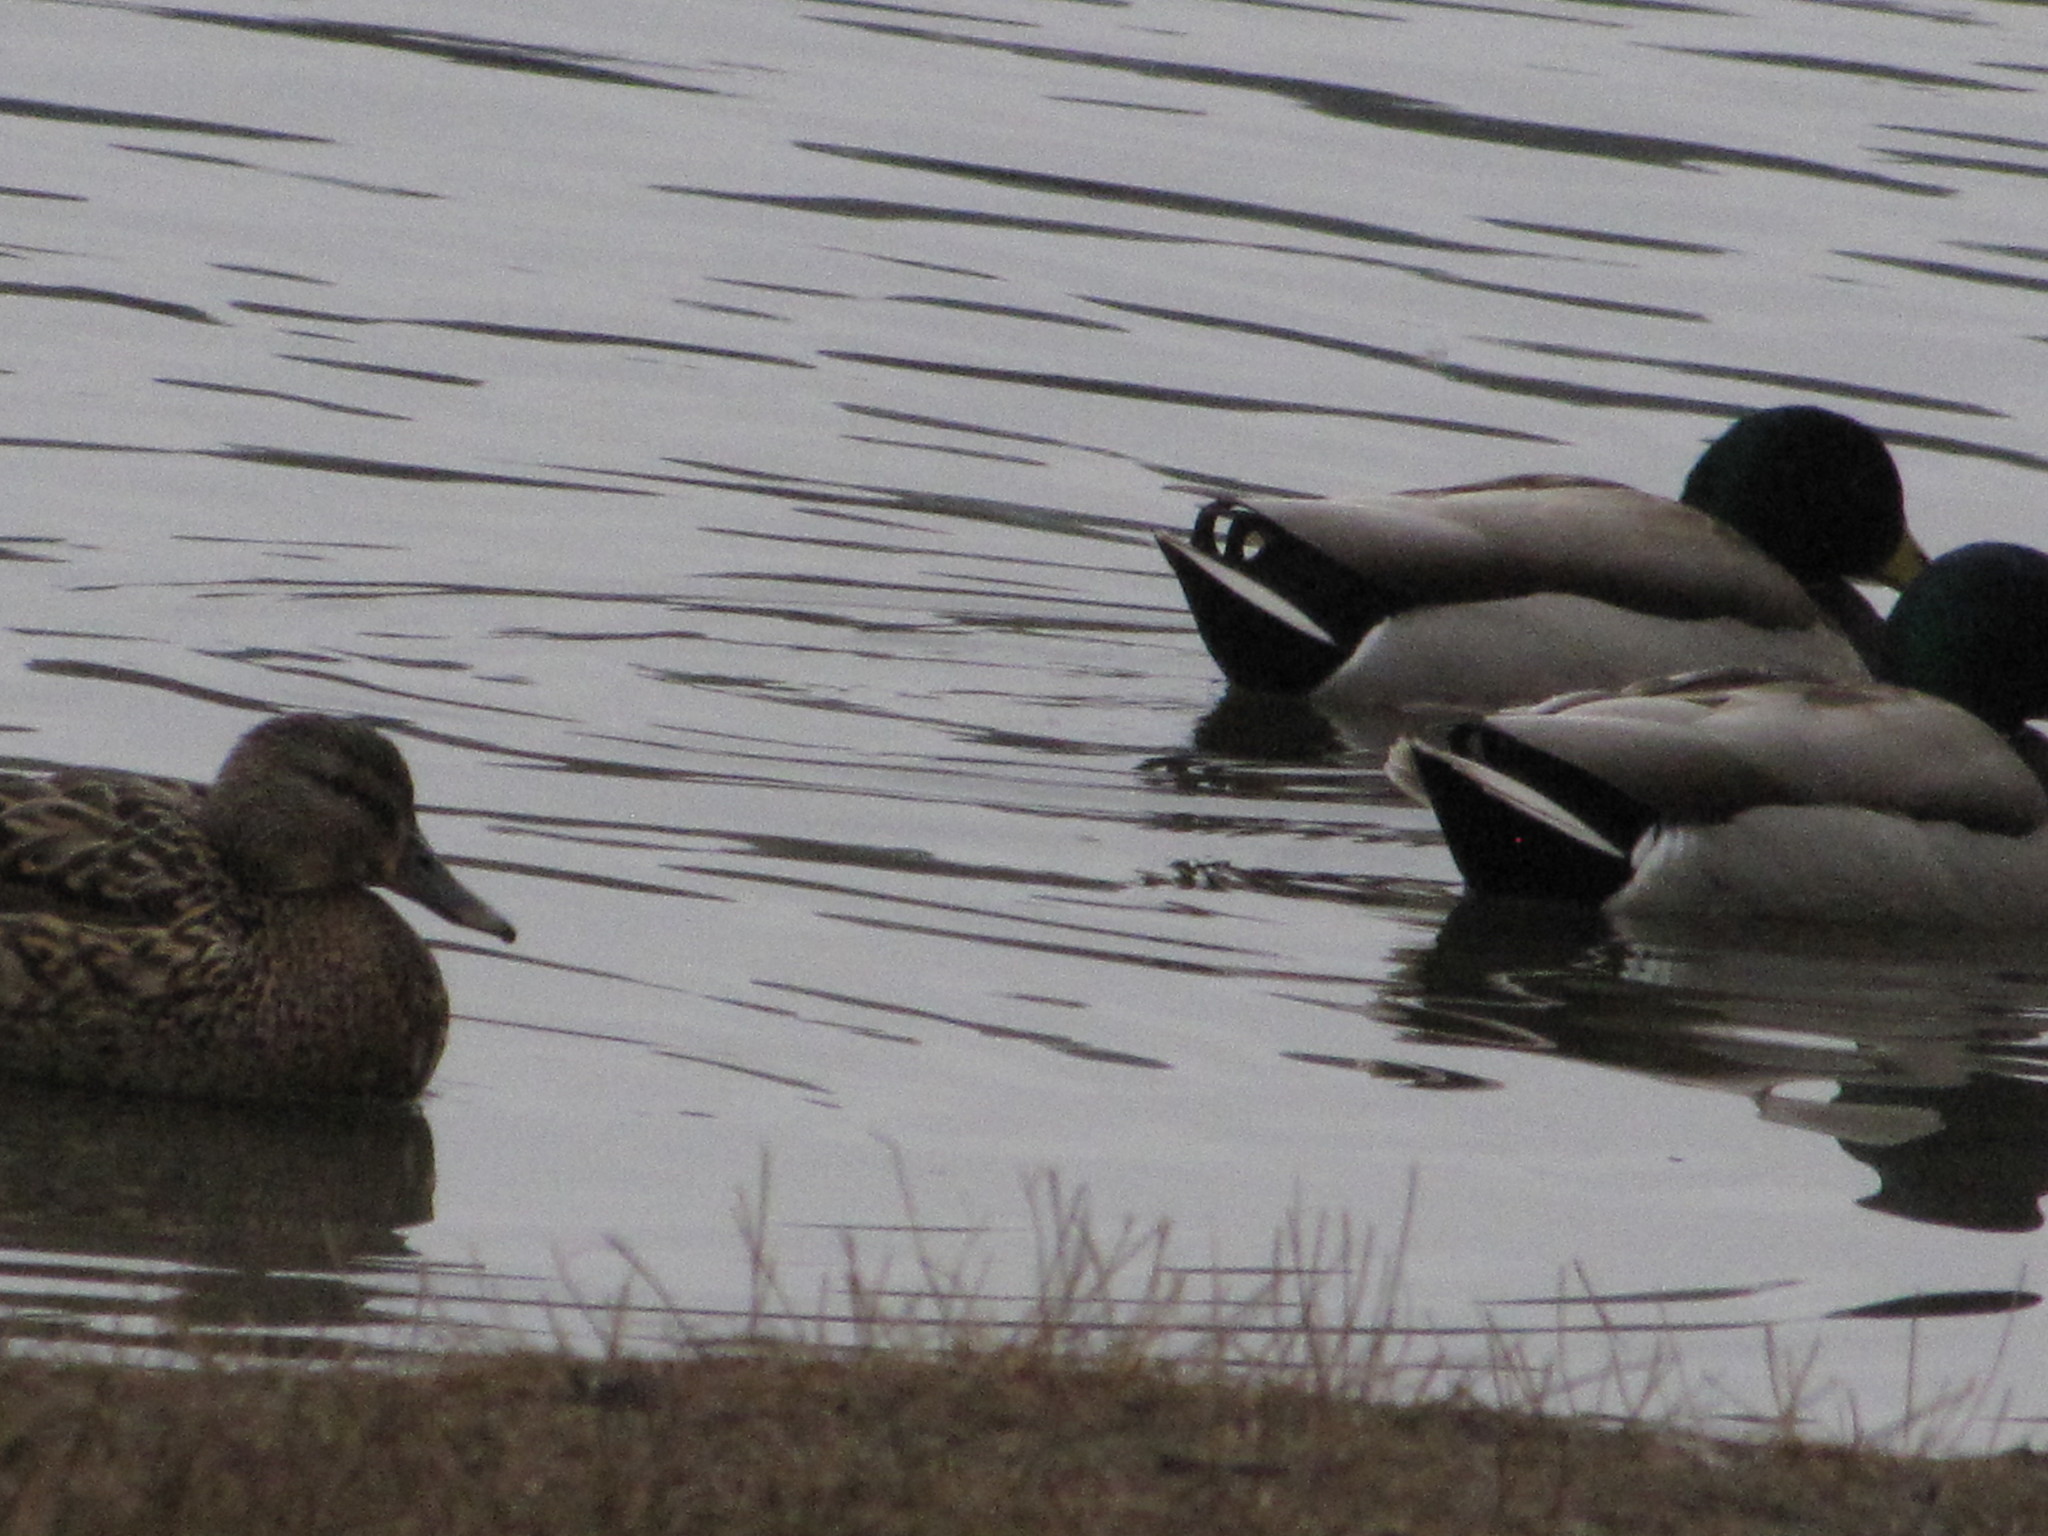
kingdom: Animalia
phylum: Chordata
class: Aves
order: Anseriformes
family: Anatidae
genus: Anas
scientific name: Anas platyrhynchos
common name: Mallard
